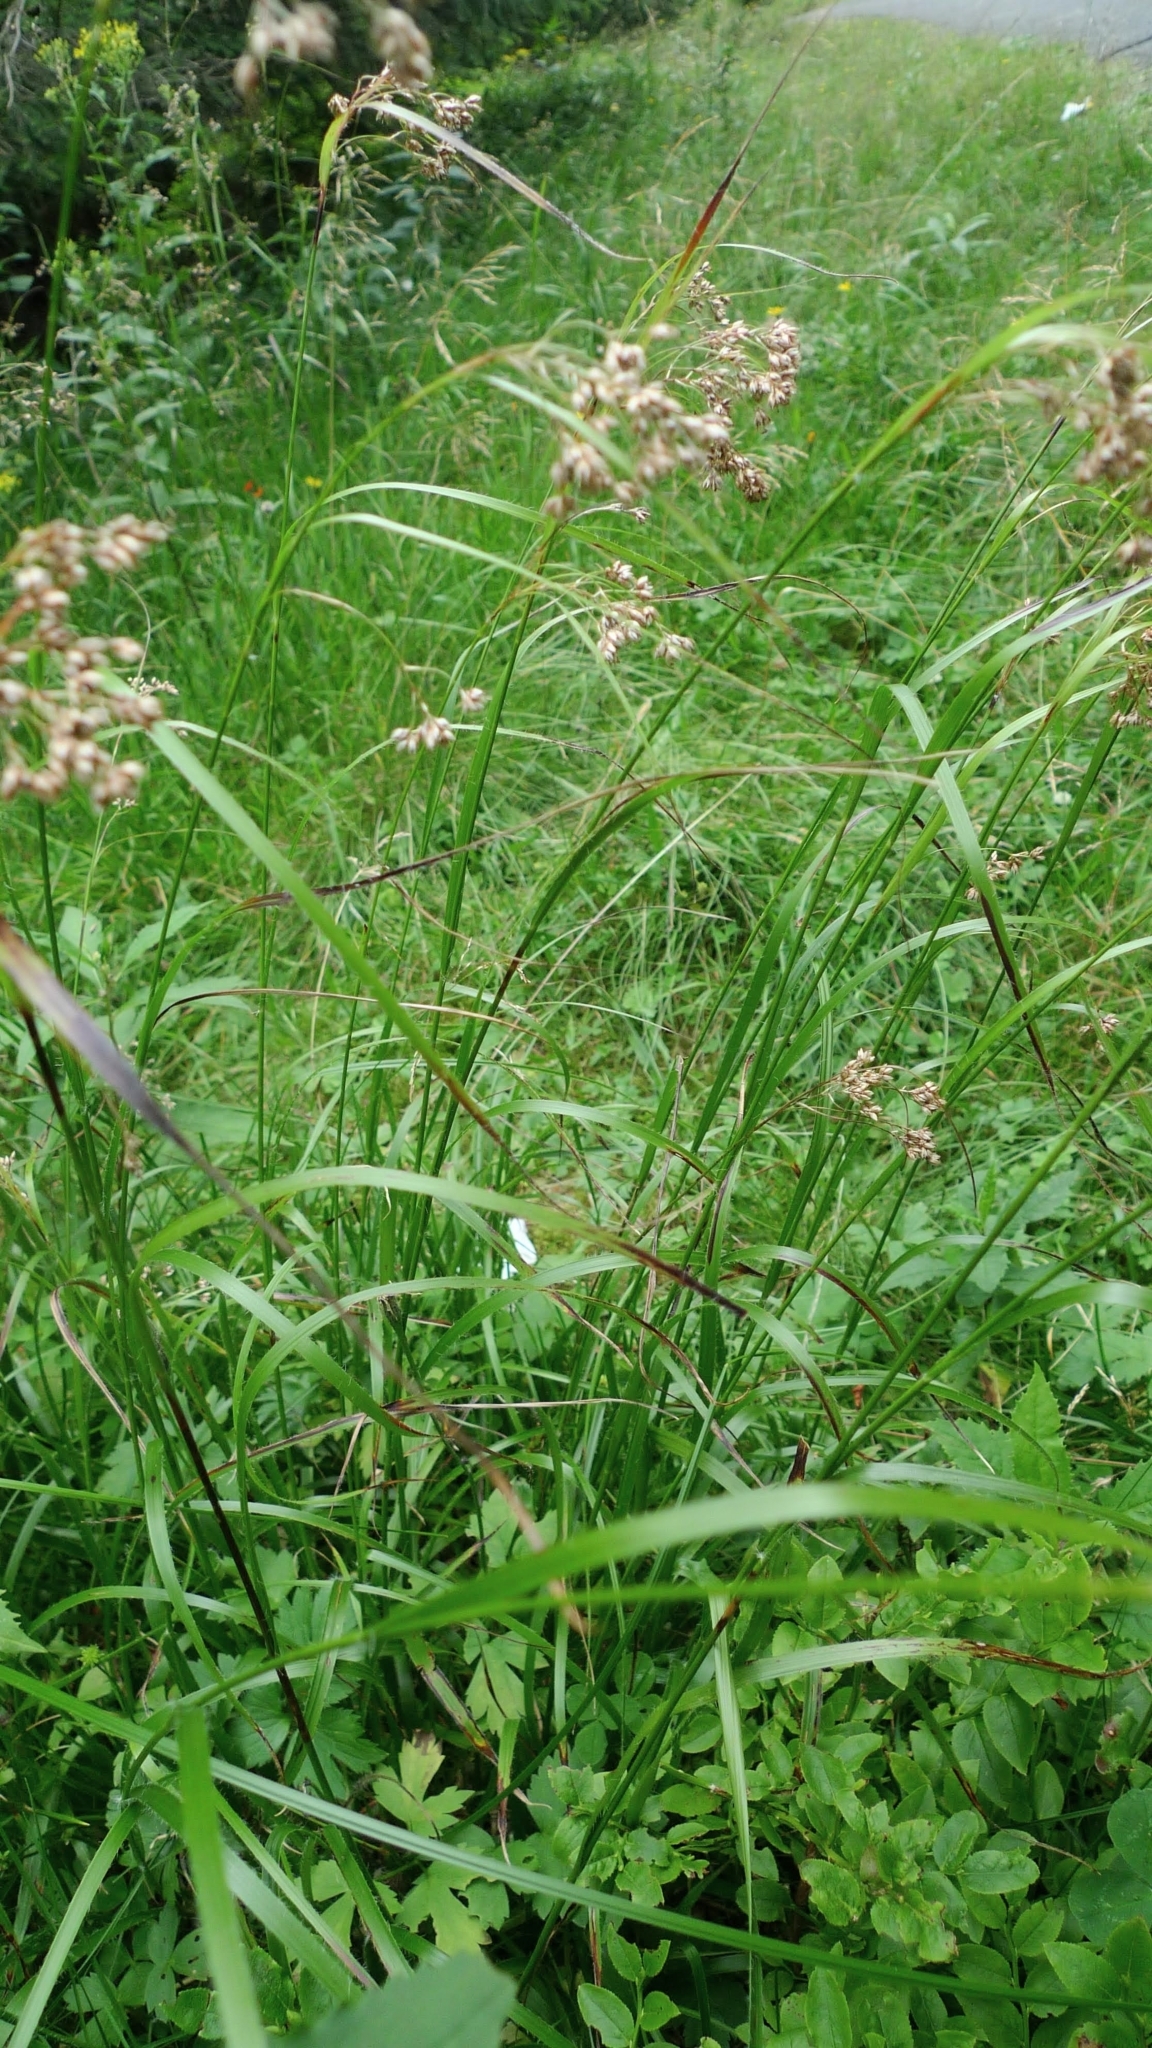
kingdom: Plantae
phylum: Tracheophyta
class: Liliopsida
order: Poales
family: Juncaceae
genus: Luzula
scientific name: Luzula luzuloides
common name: White wood-rush
